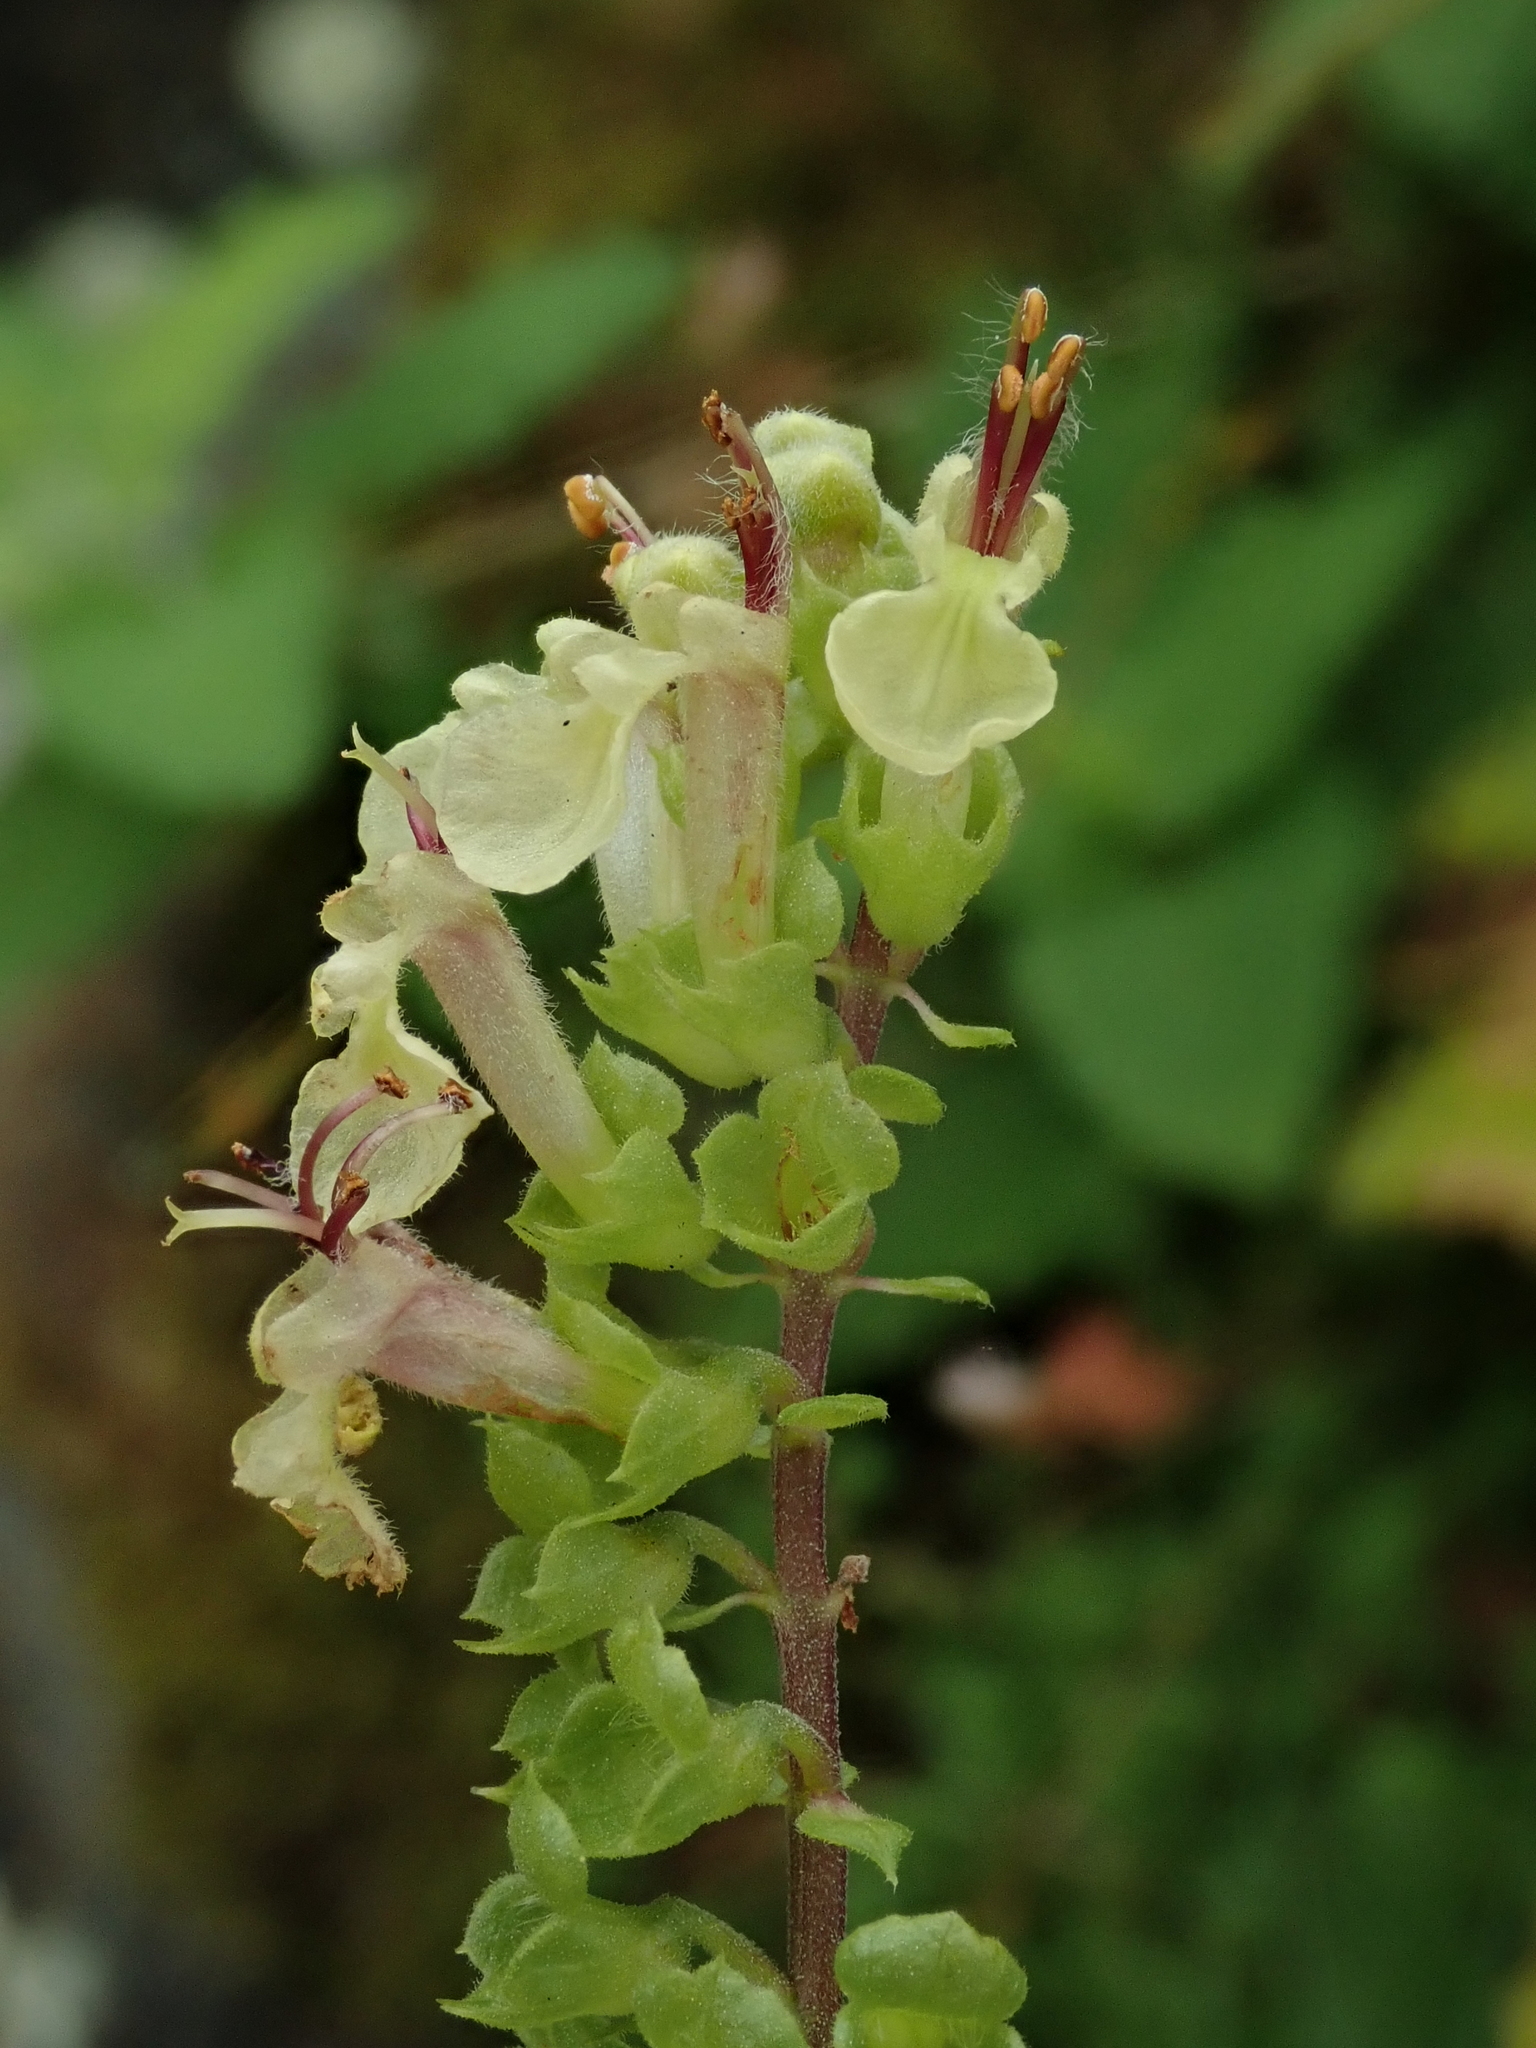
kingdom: Plantae
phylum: Tracheophyta
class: Magnoliopsida
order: Lamiales
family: Lamiaceae
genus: Teucrium
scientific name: Teucrium scorodonia
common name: Woodland germander
